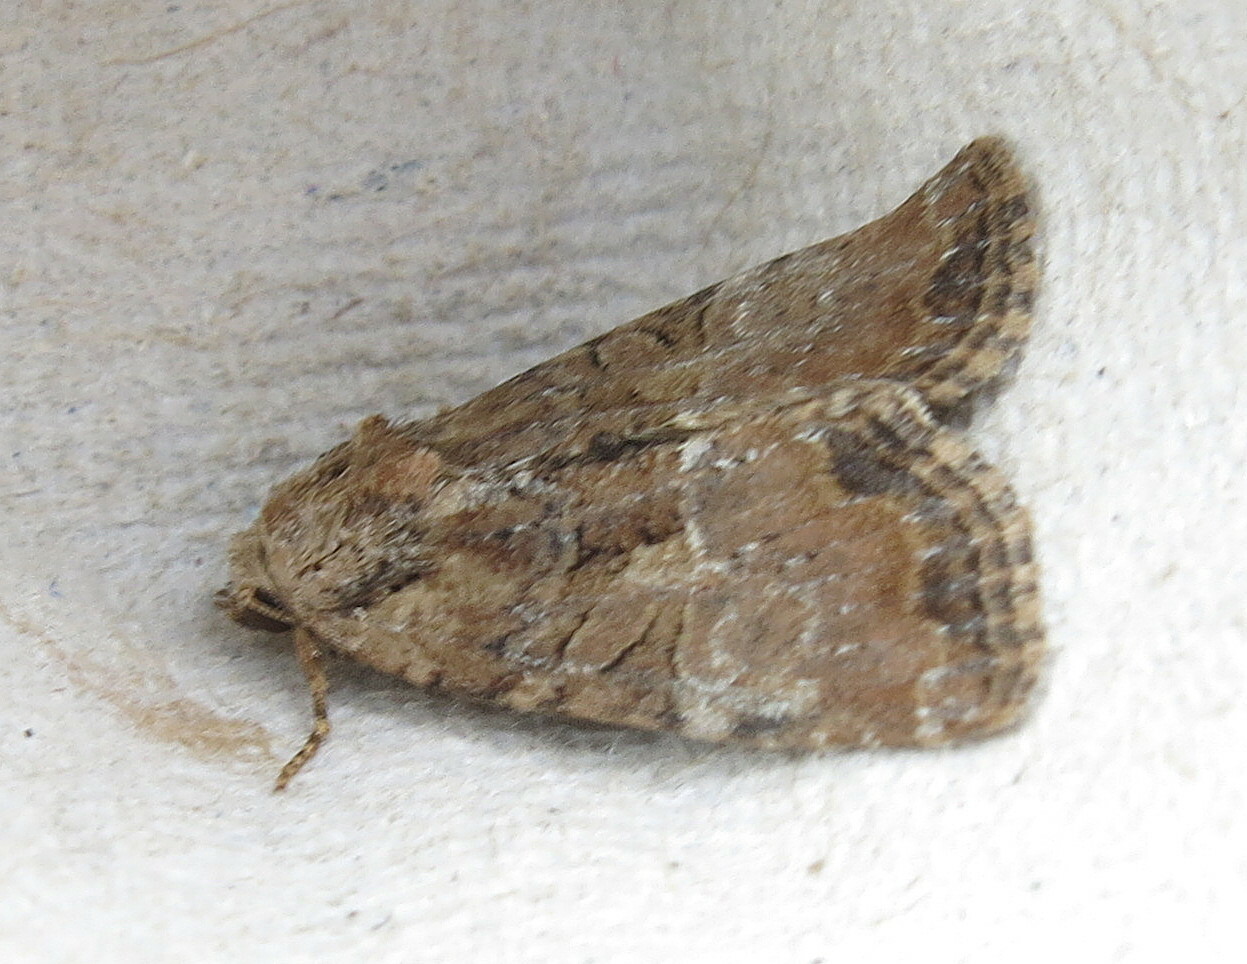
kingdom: Animalia
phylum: Arthropoda
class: Insecta
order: Lepidoptera
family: Noctuidae
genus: Mesoligia
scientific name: Mesoligia furuncula
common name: Cloaked minor
